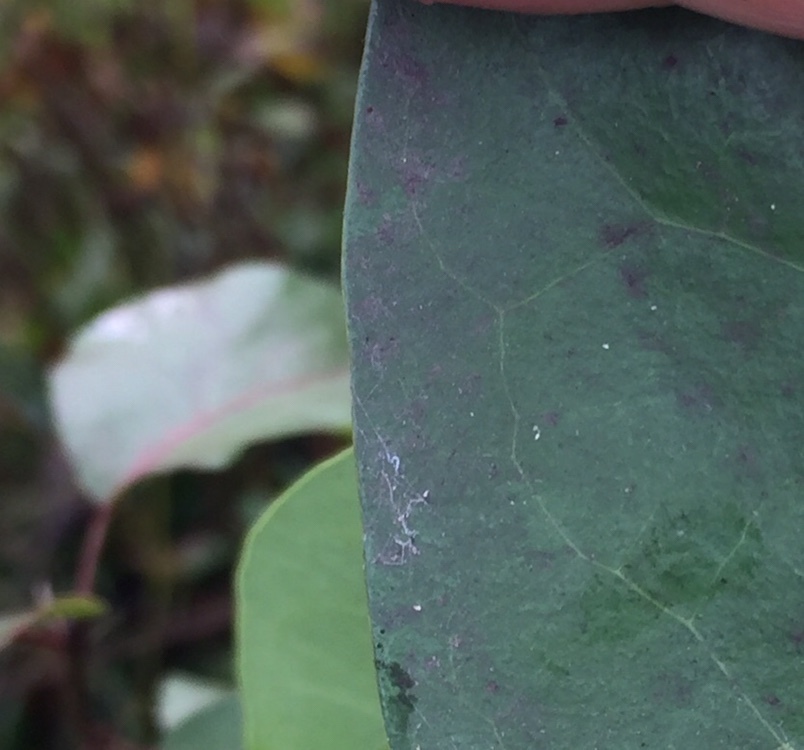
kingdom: Plantae
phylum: Tracheophyta
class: Magnoliopsida
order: Lamiales
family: Oleaceae
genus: Ligustrum
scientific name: Ligustrum lucidum
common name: Glossy privet
